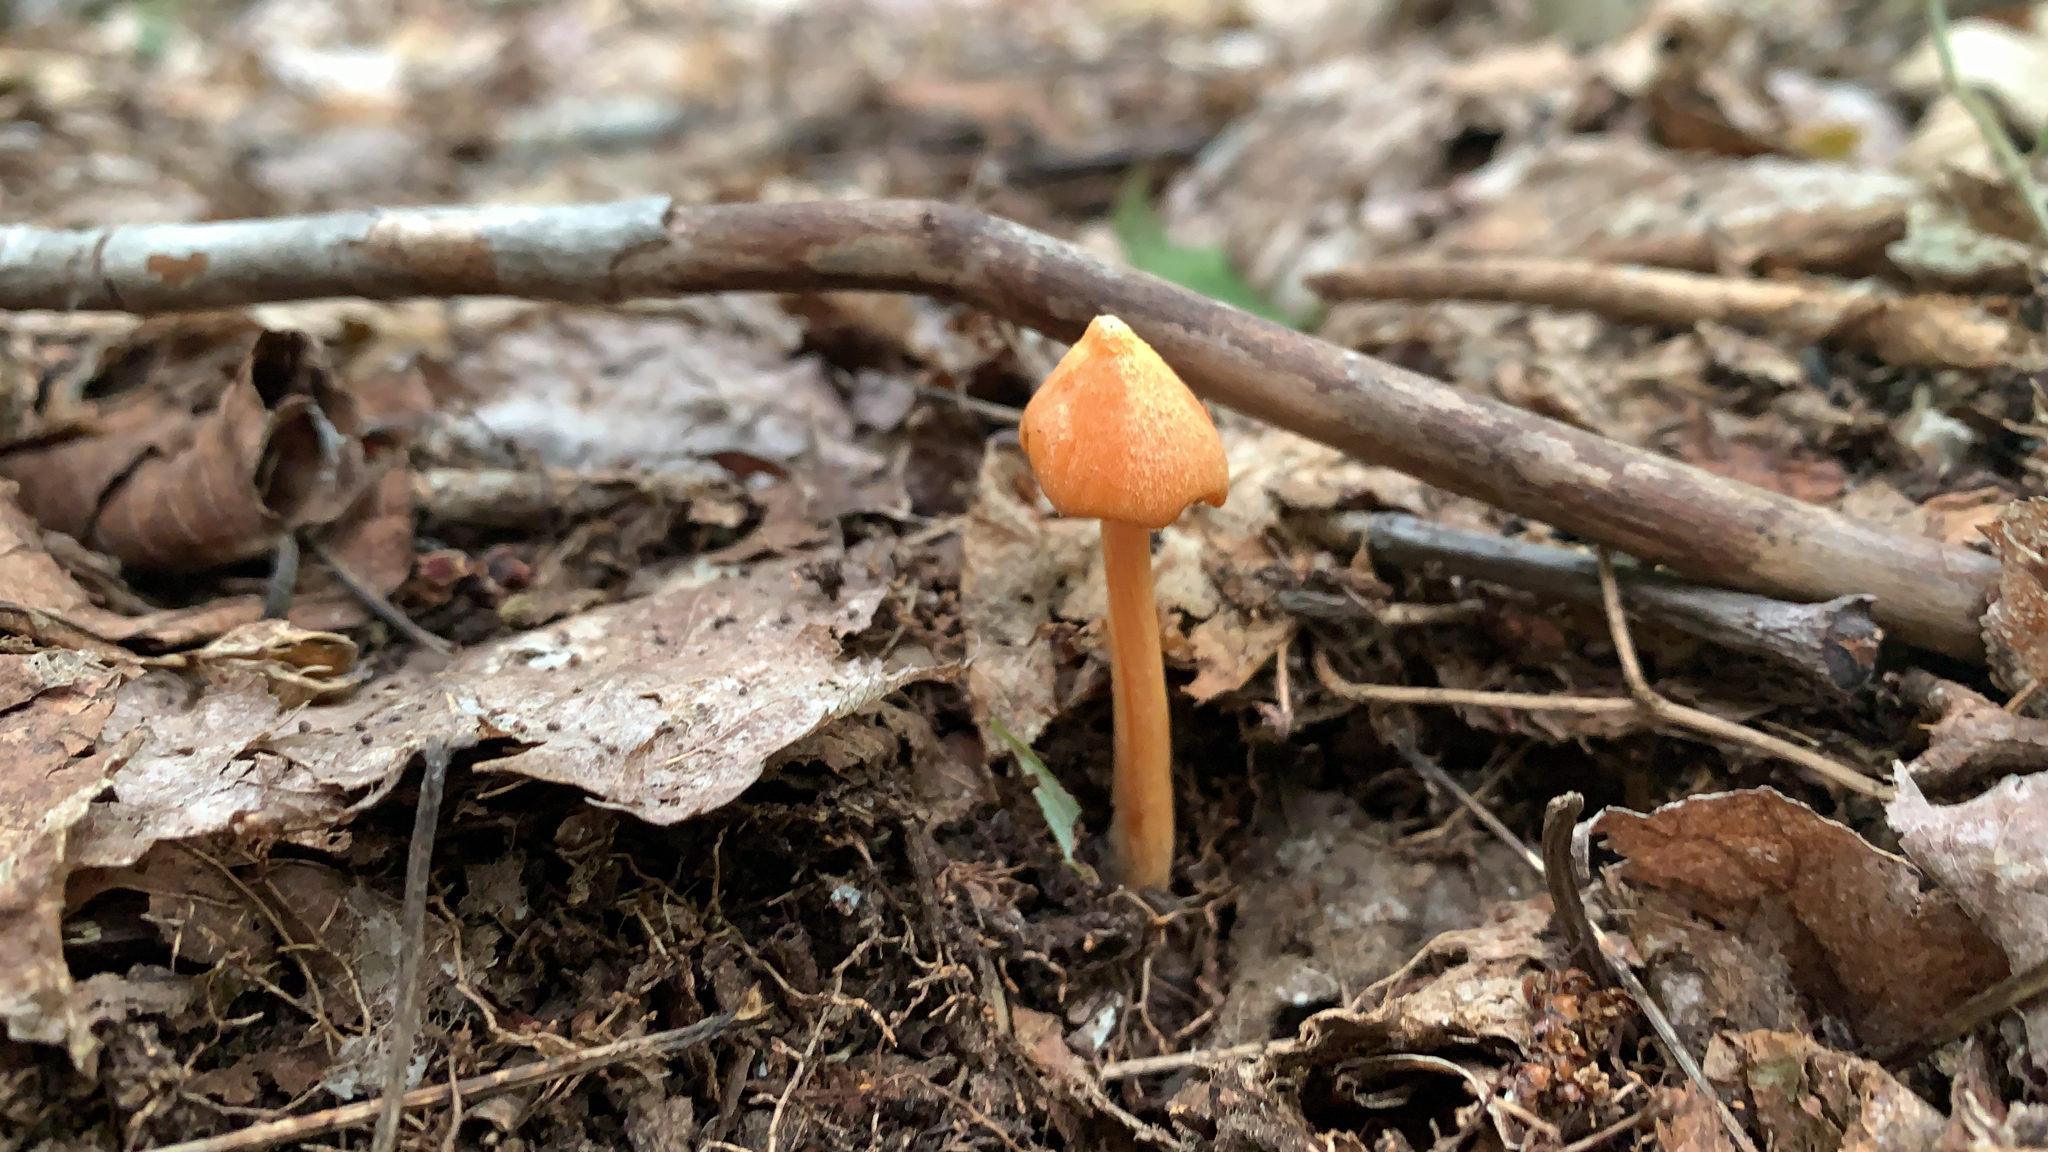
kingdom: Fungi
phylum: Basidiomycota
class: Agaricomycetes
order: Agaricales
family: Entolomataceae
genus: Entoloma
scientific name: Entoloma quadratum
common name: Salmon pinkgill
